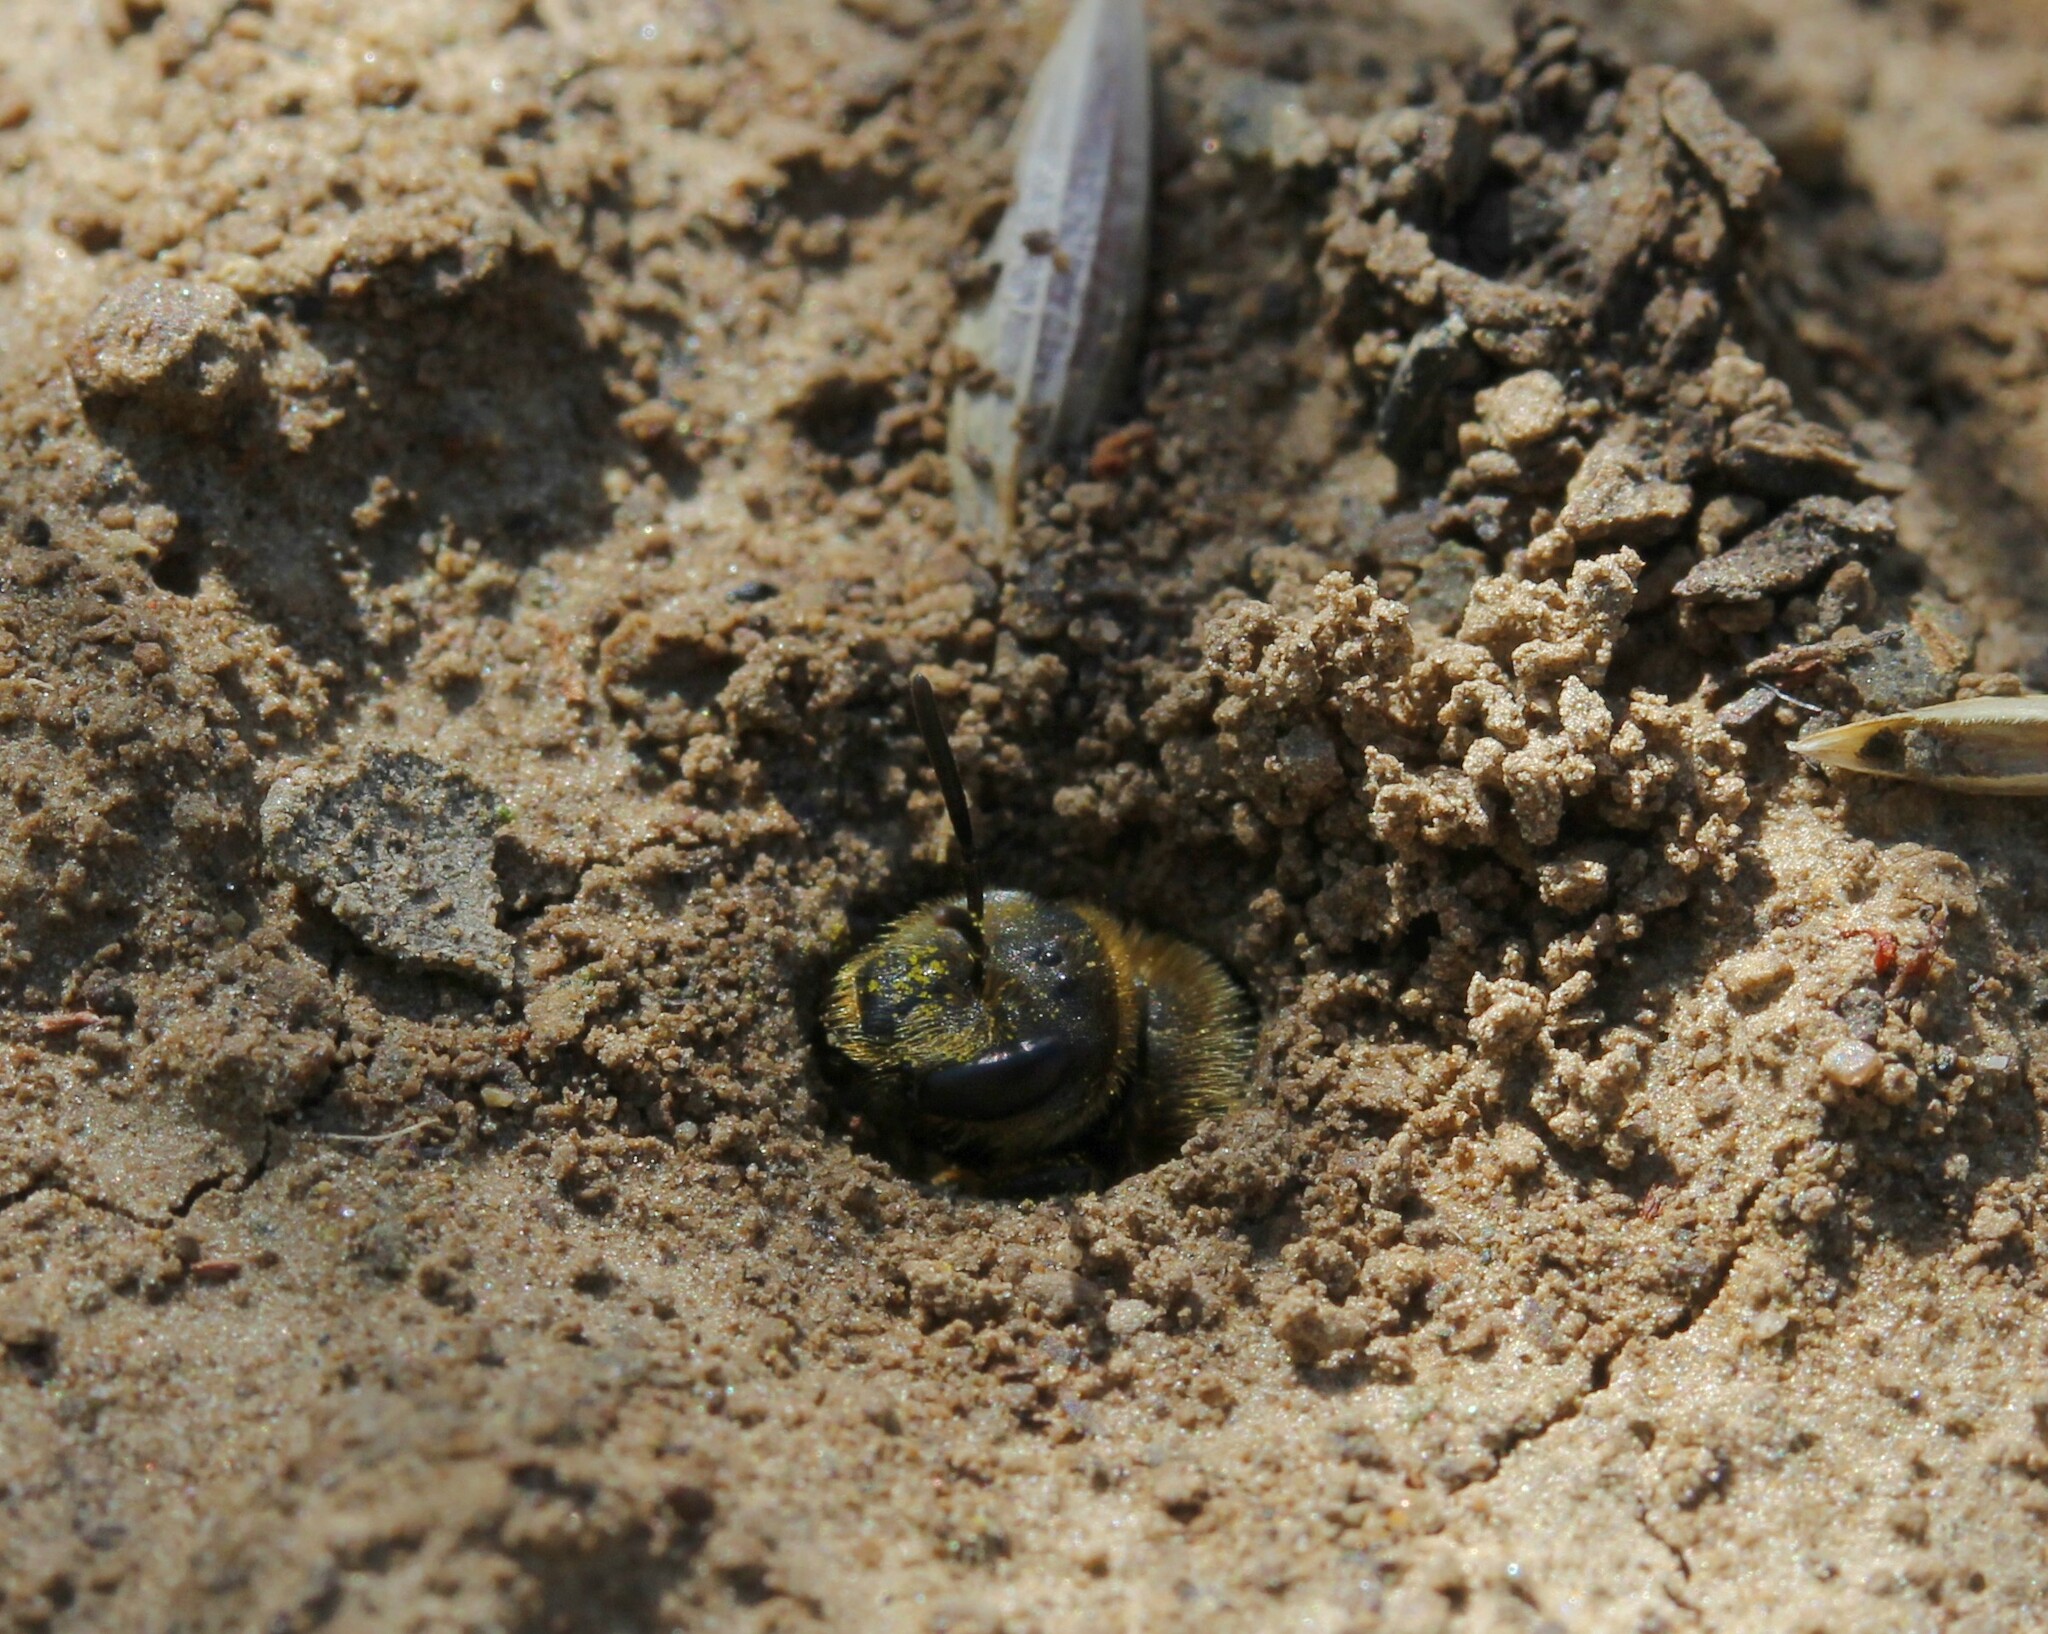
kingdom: Animalia
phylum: Arthropoda
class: Insecta
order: Hymenoptera
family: Halictidae
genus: Halictus
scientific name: Halictus
